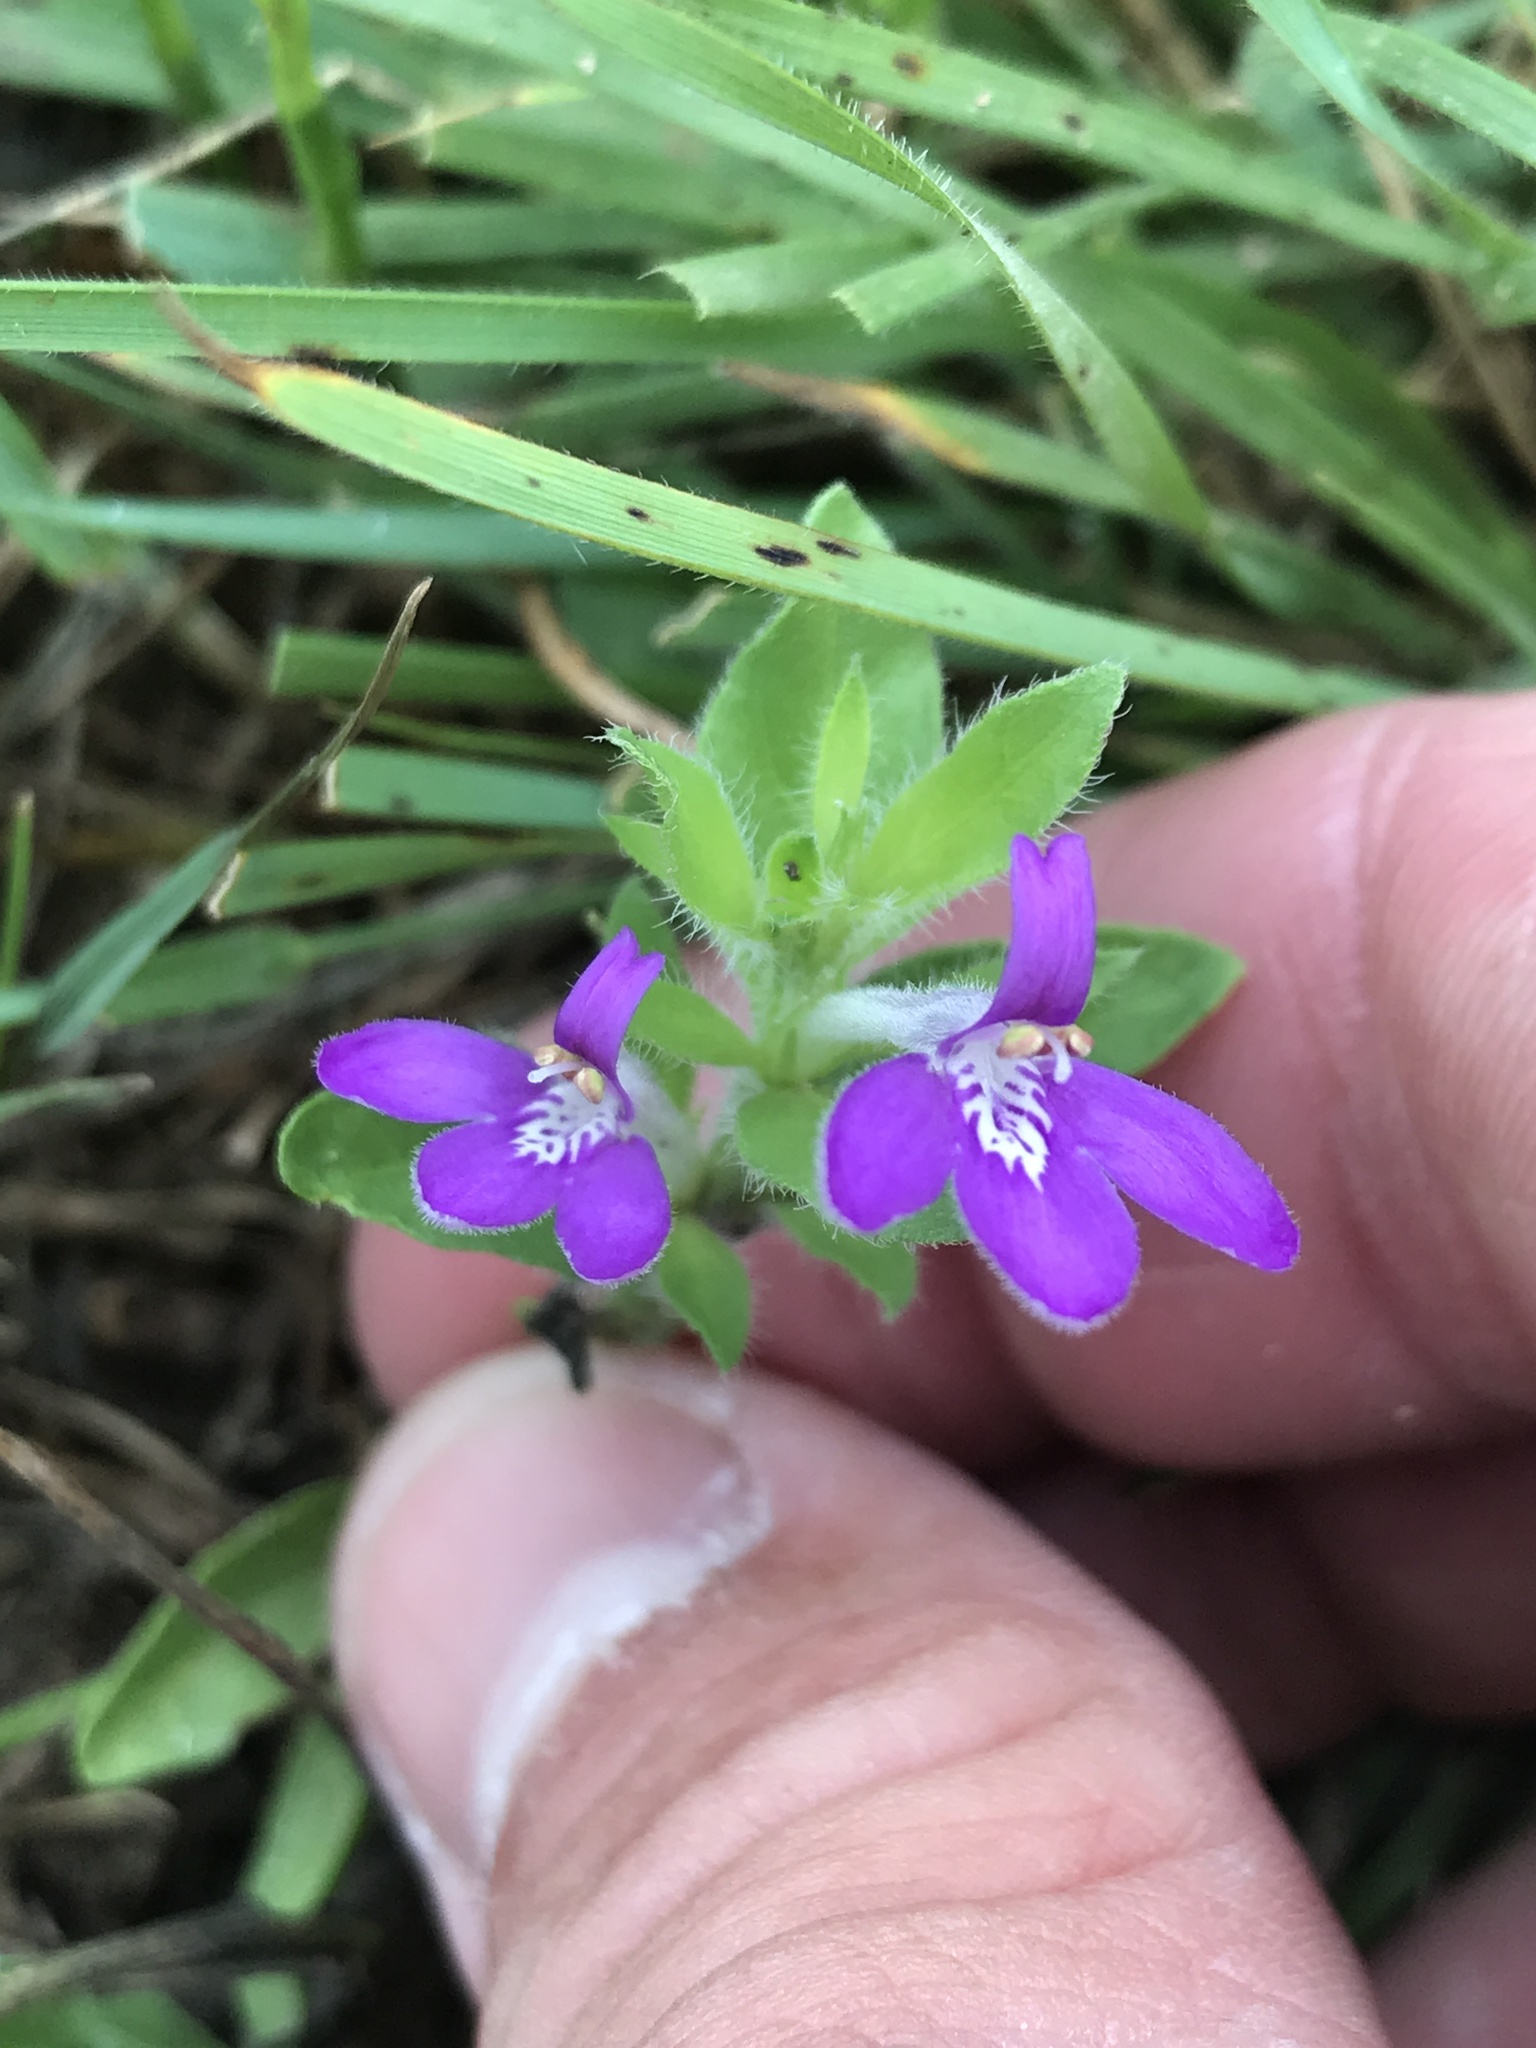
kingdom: Plantae
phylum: Tracheophyta
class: Magnoliopsida
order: Lamiales
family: Acanthaceae
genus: Justicia
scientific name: Justicia pilosella
